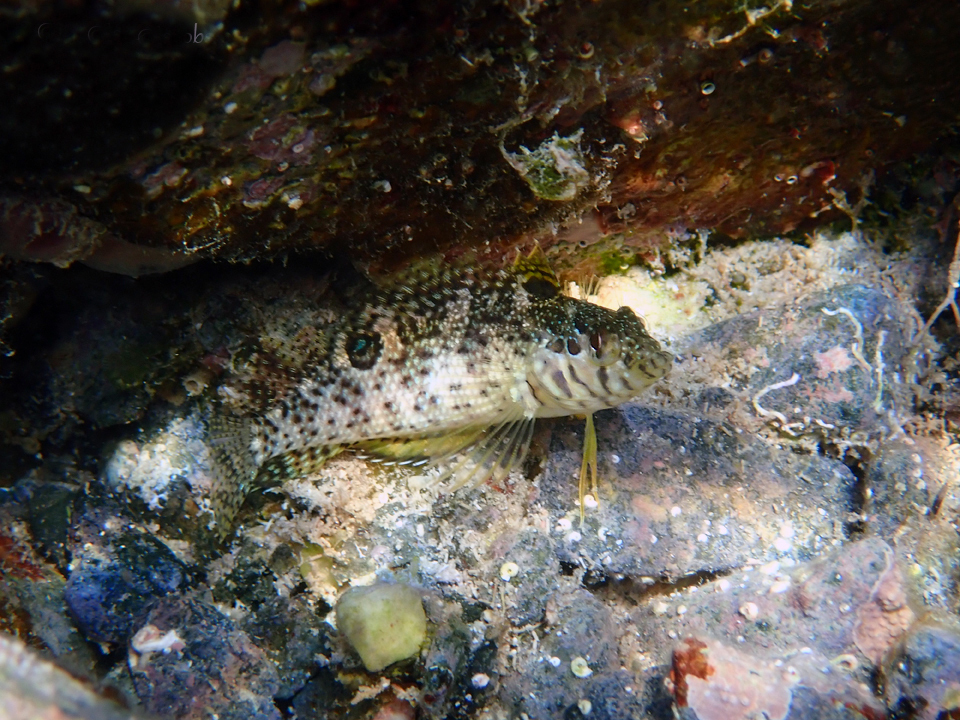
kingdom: Animalia
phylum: Chordata
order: Perciformes
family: Labrisomidae
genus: Malacoctenus
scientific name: Malacoctenus gilli
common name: Dusky blenny
